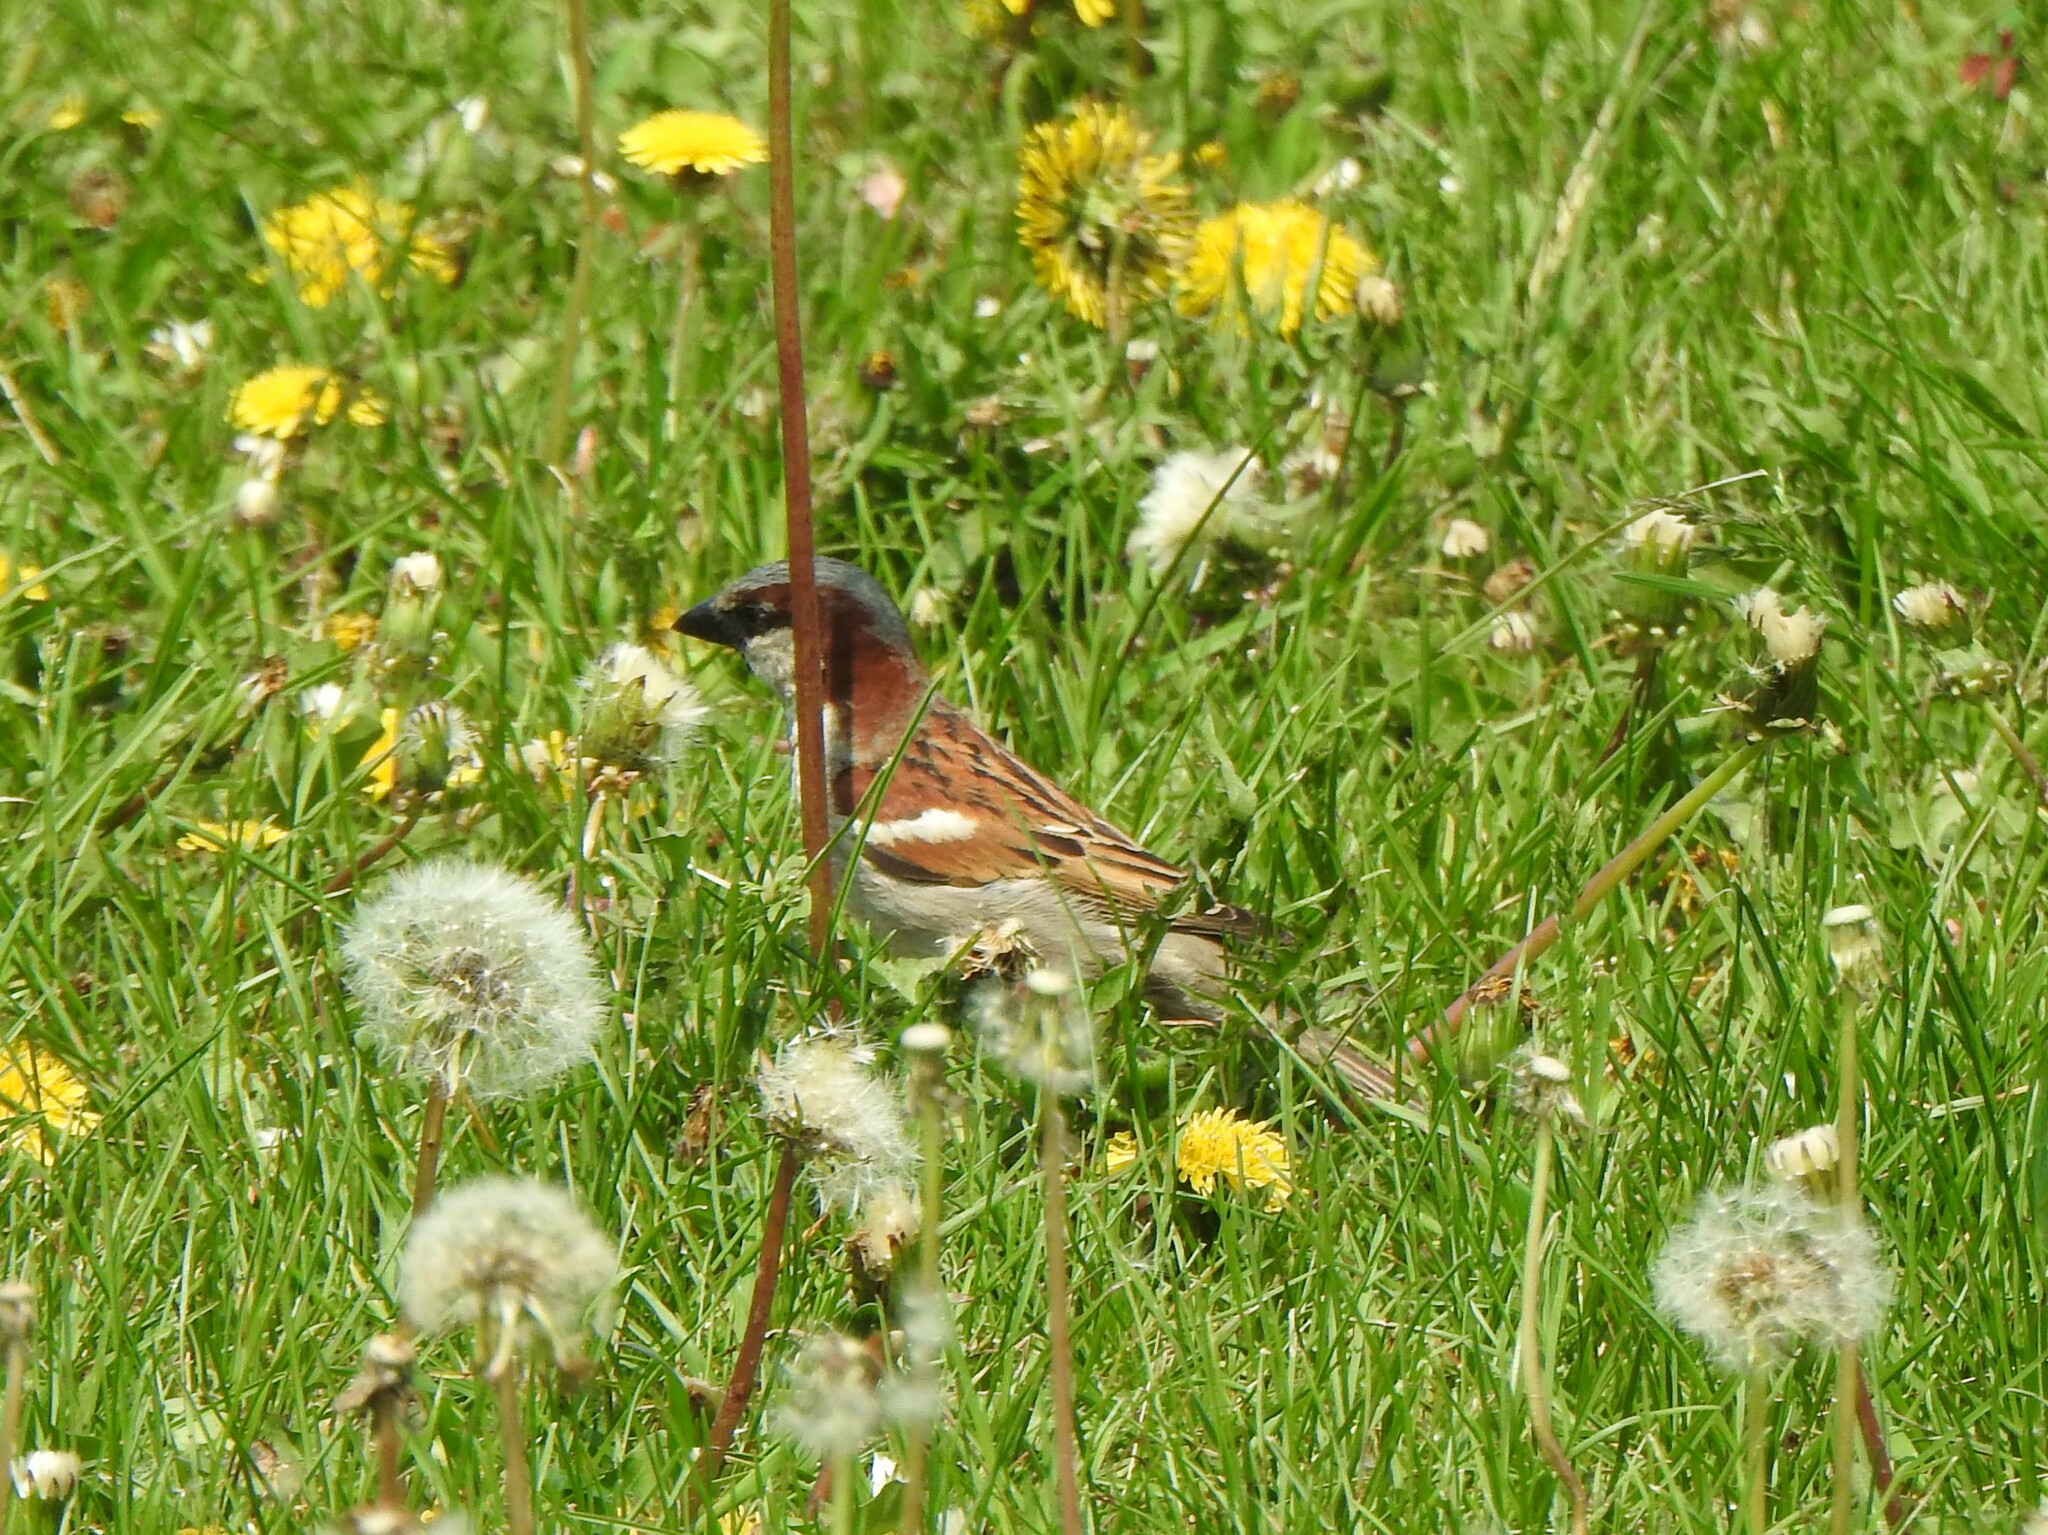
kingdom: Animalia
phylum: Chordata
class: Aves
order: Passeriformes
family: Passeridae
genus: Passer
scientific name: Passer domesticus
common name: House sparrow
